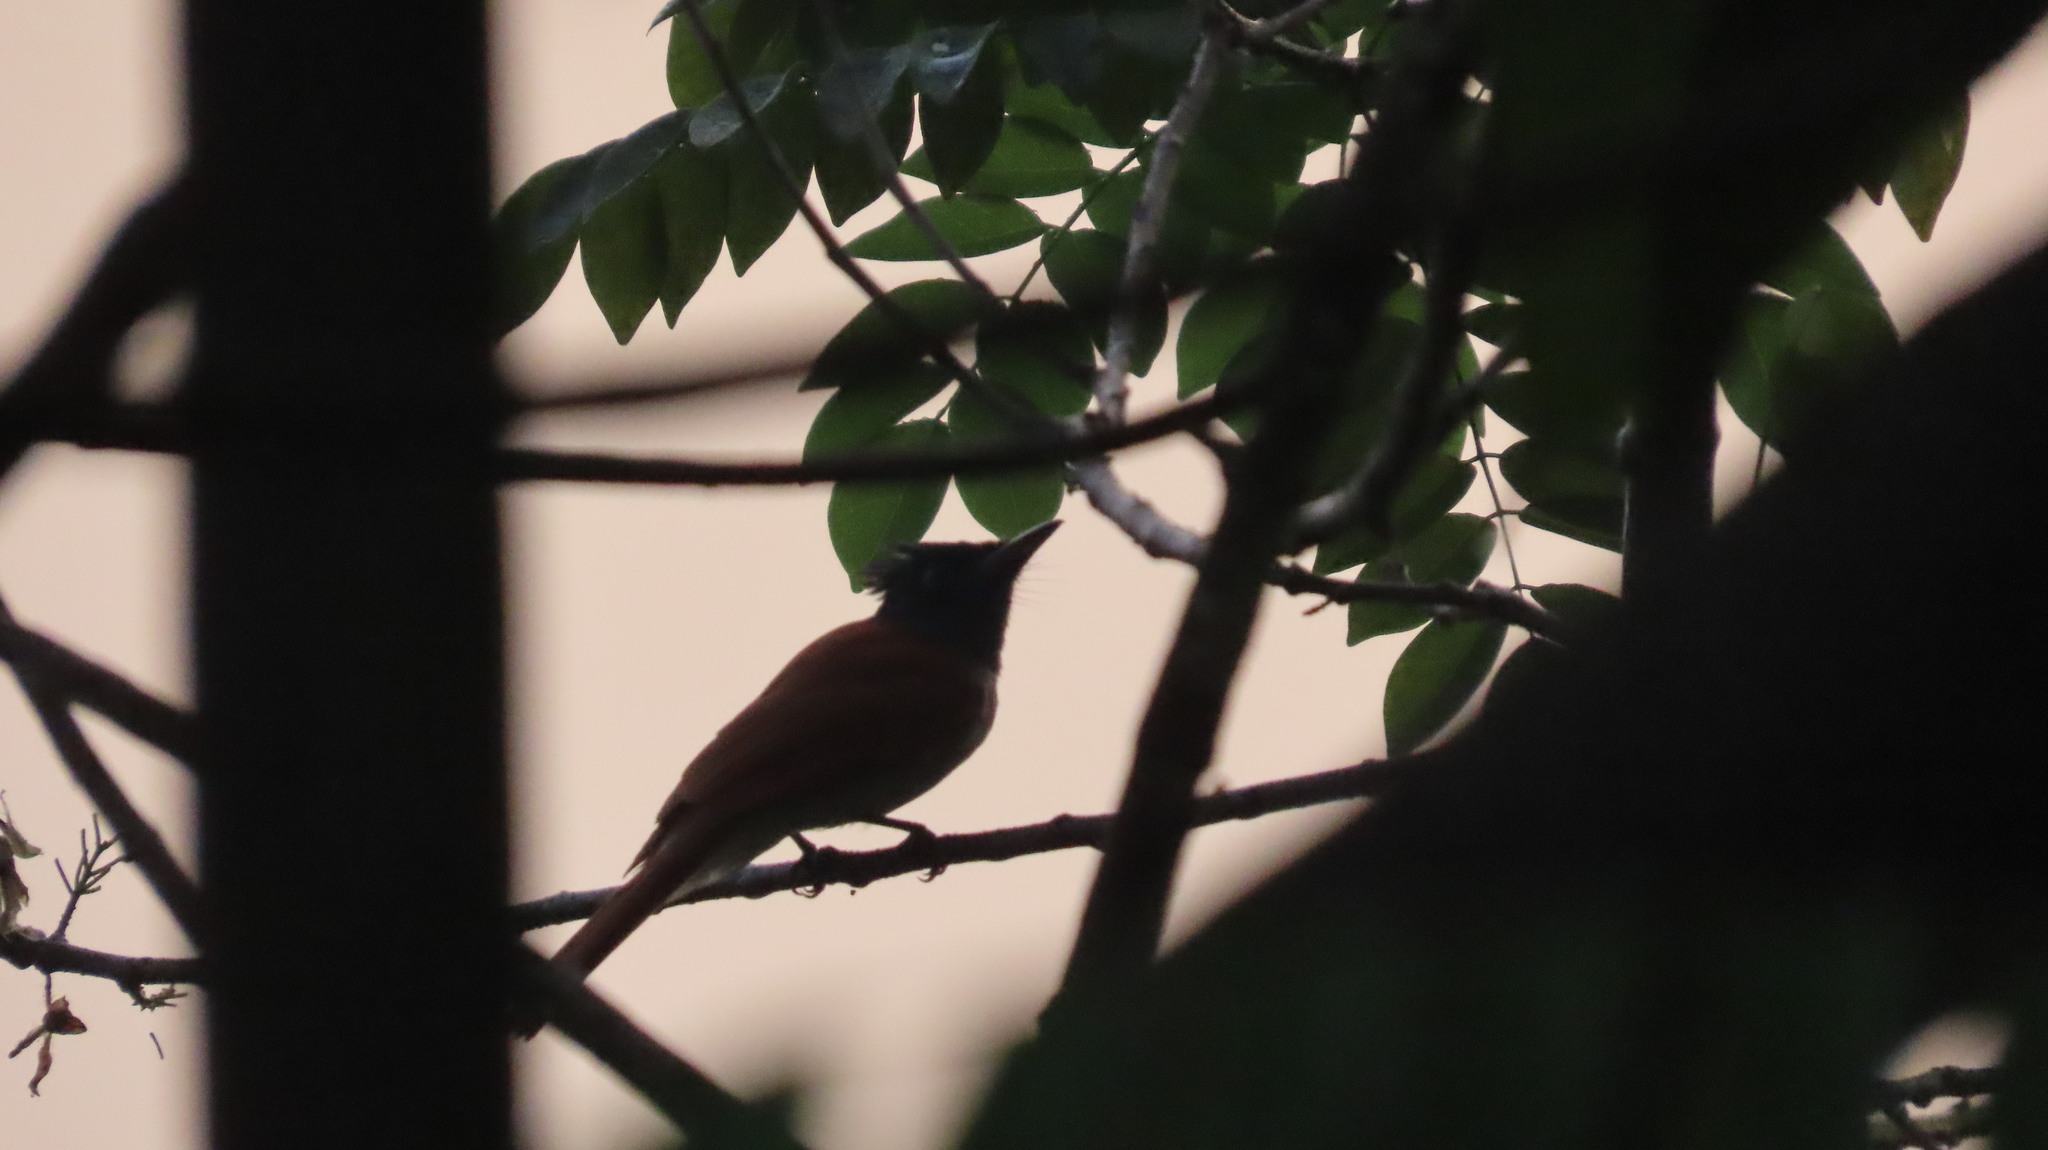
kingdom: Animalia
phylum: Chordata
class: Aves
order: Passeriformes
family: Monarchidae
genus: Terpsiphone
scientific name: Terpsiphone paradisi
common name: Indian paradise flycatcher
